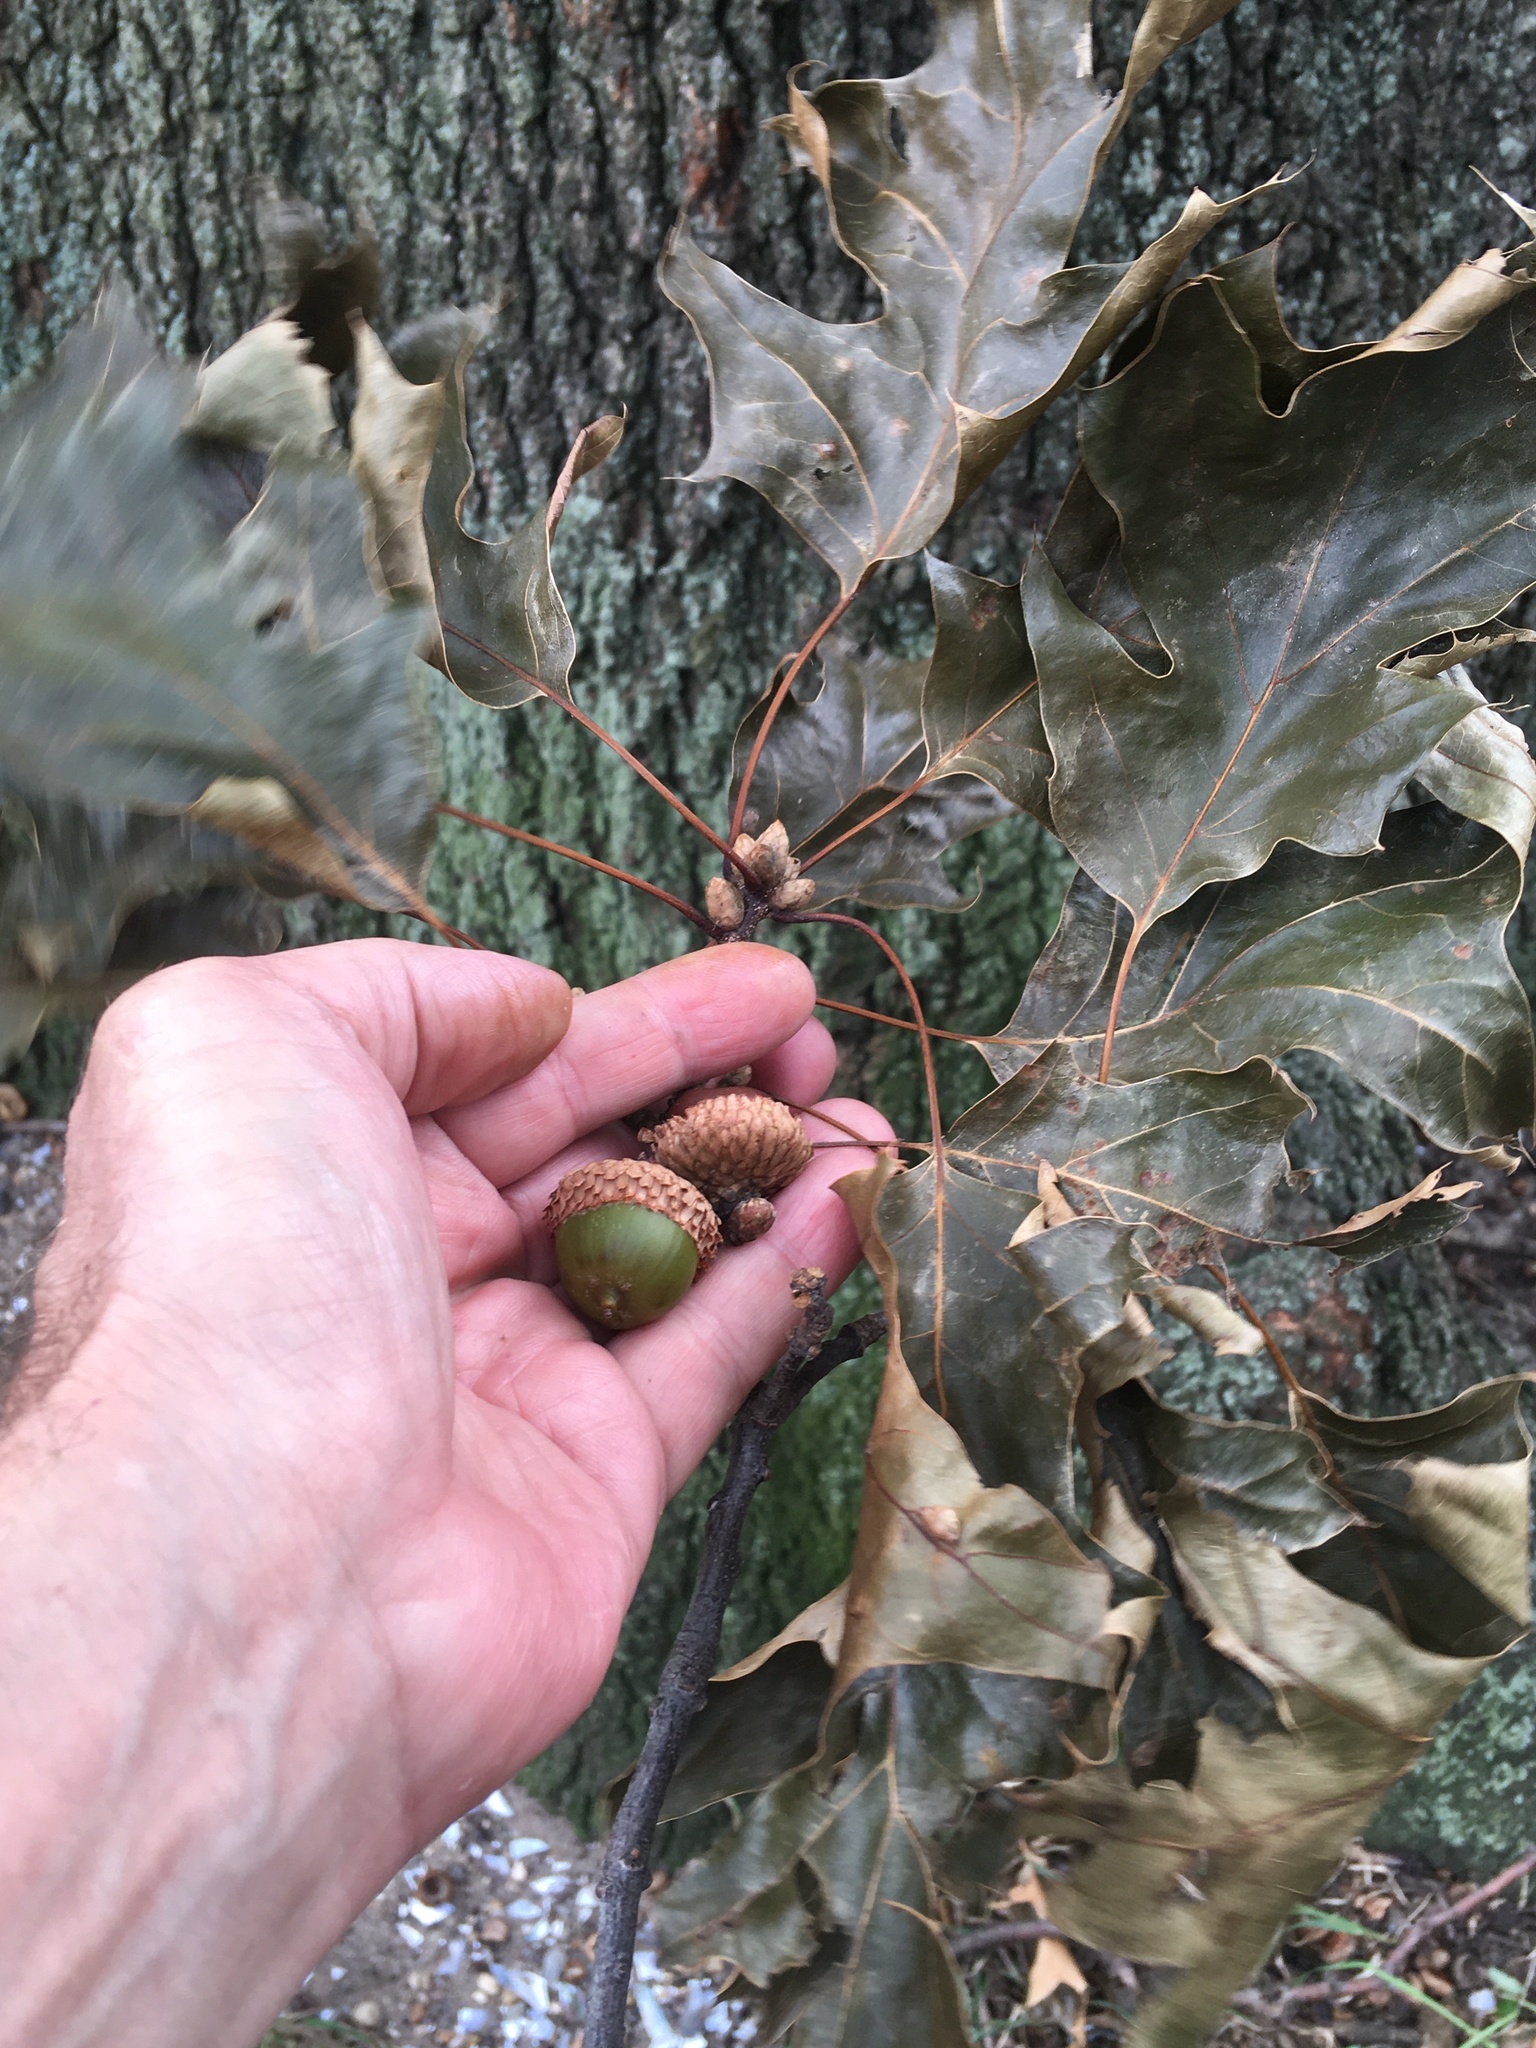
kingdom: Plantae
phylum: Tracheophyta
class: Magnoliopsida
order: Fagales
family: Fagaceae
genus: Quercus
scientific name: Quercus velutina
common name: Black oak
